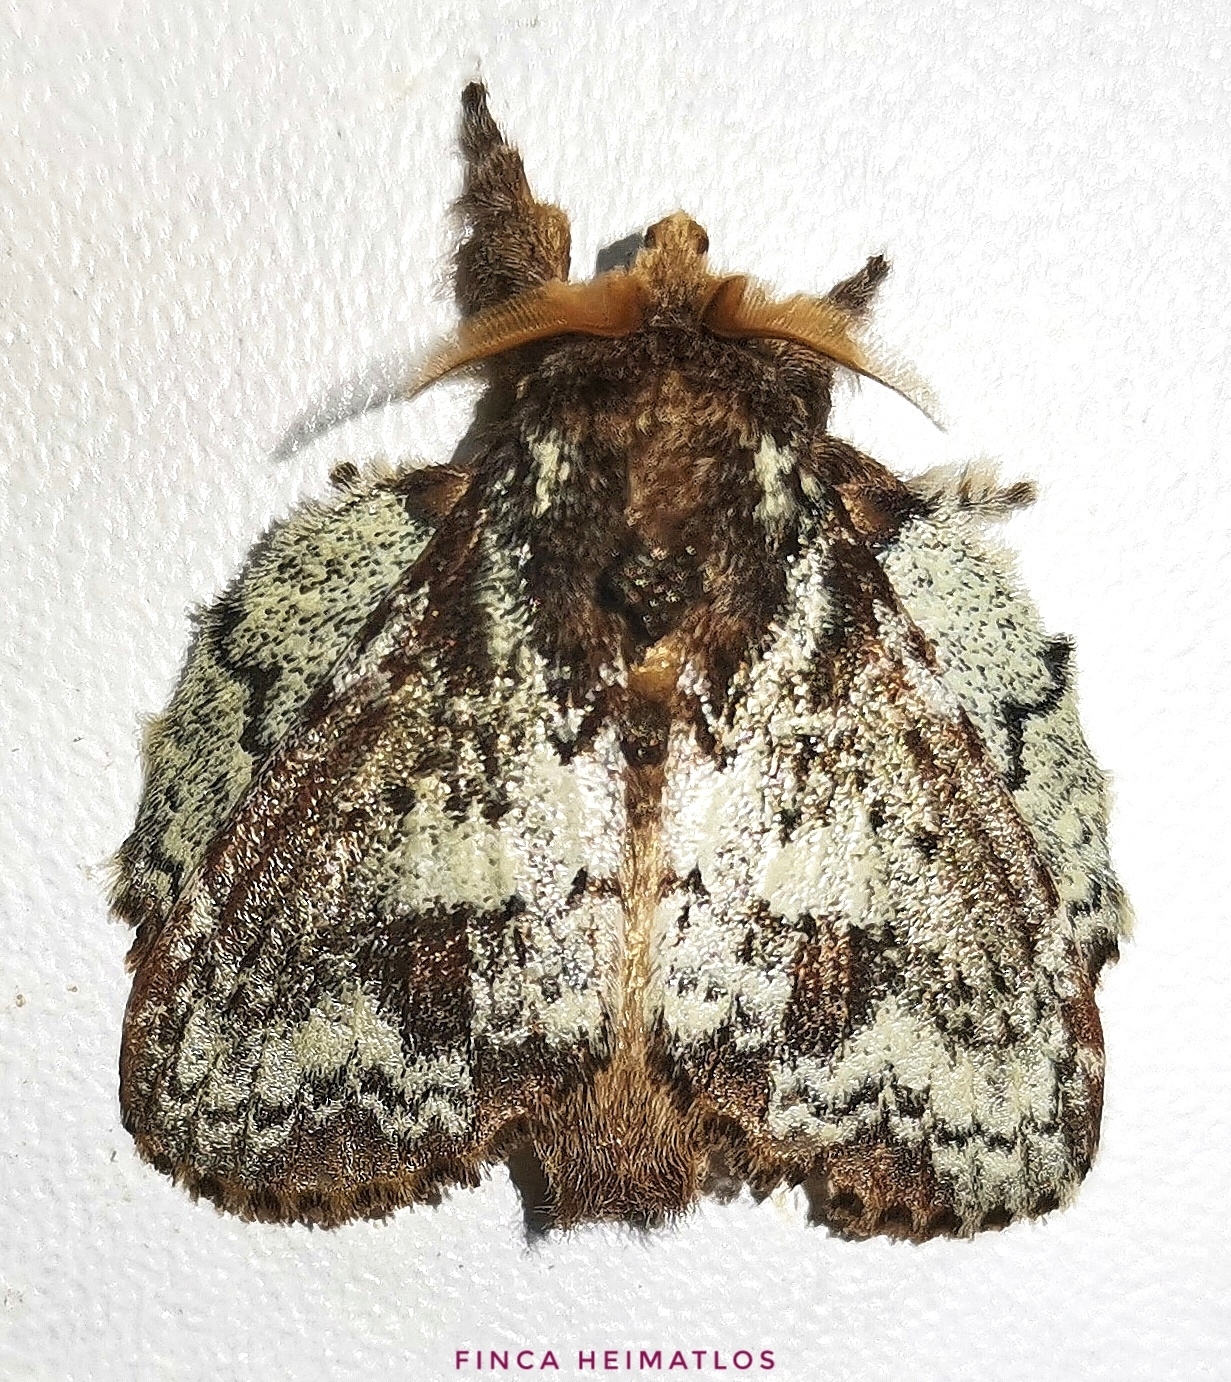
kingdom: Animalia
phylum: Arthropoda
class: Insecta
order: Lepidoptera
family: Lasiocampidae
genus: Euglyphis
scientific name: Euglyphis pira
